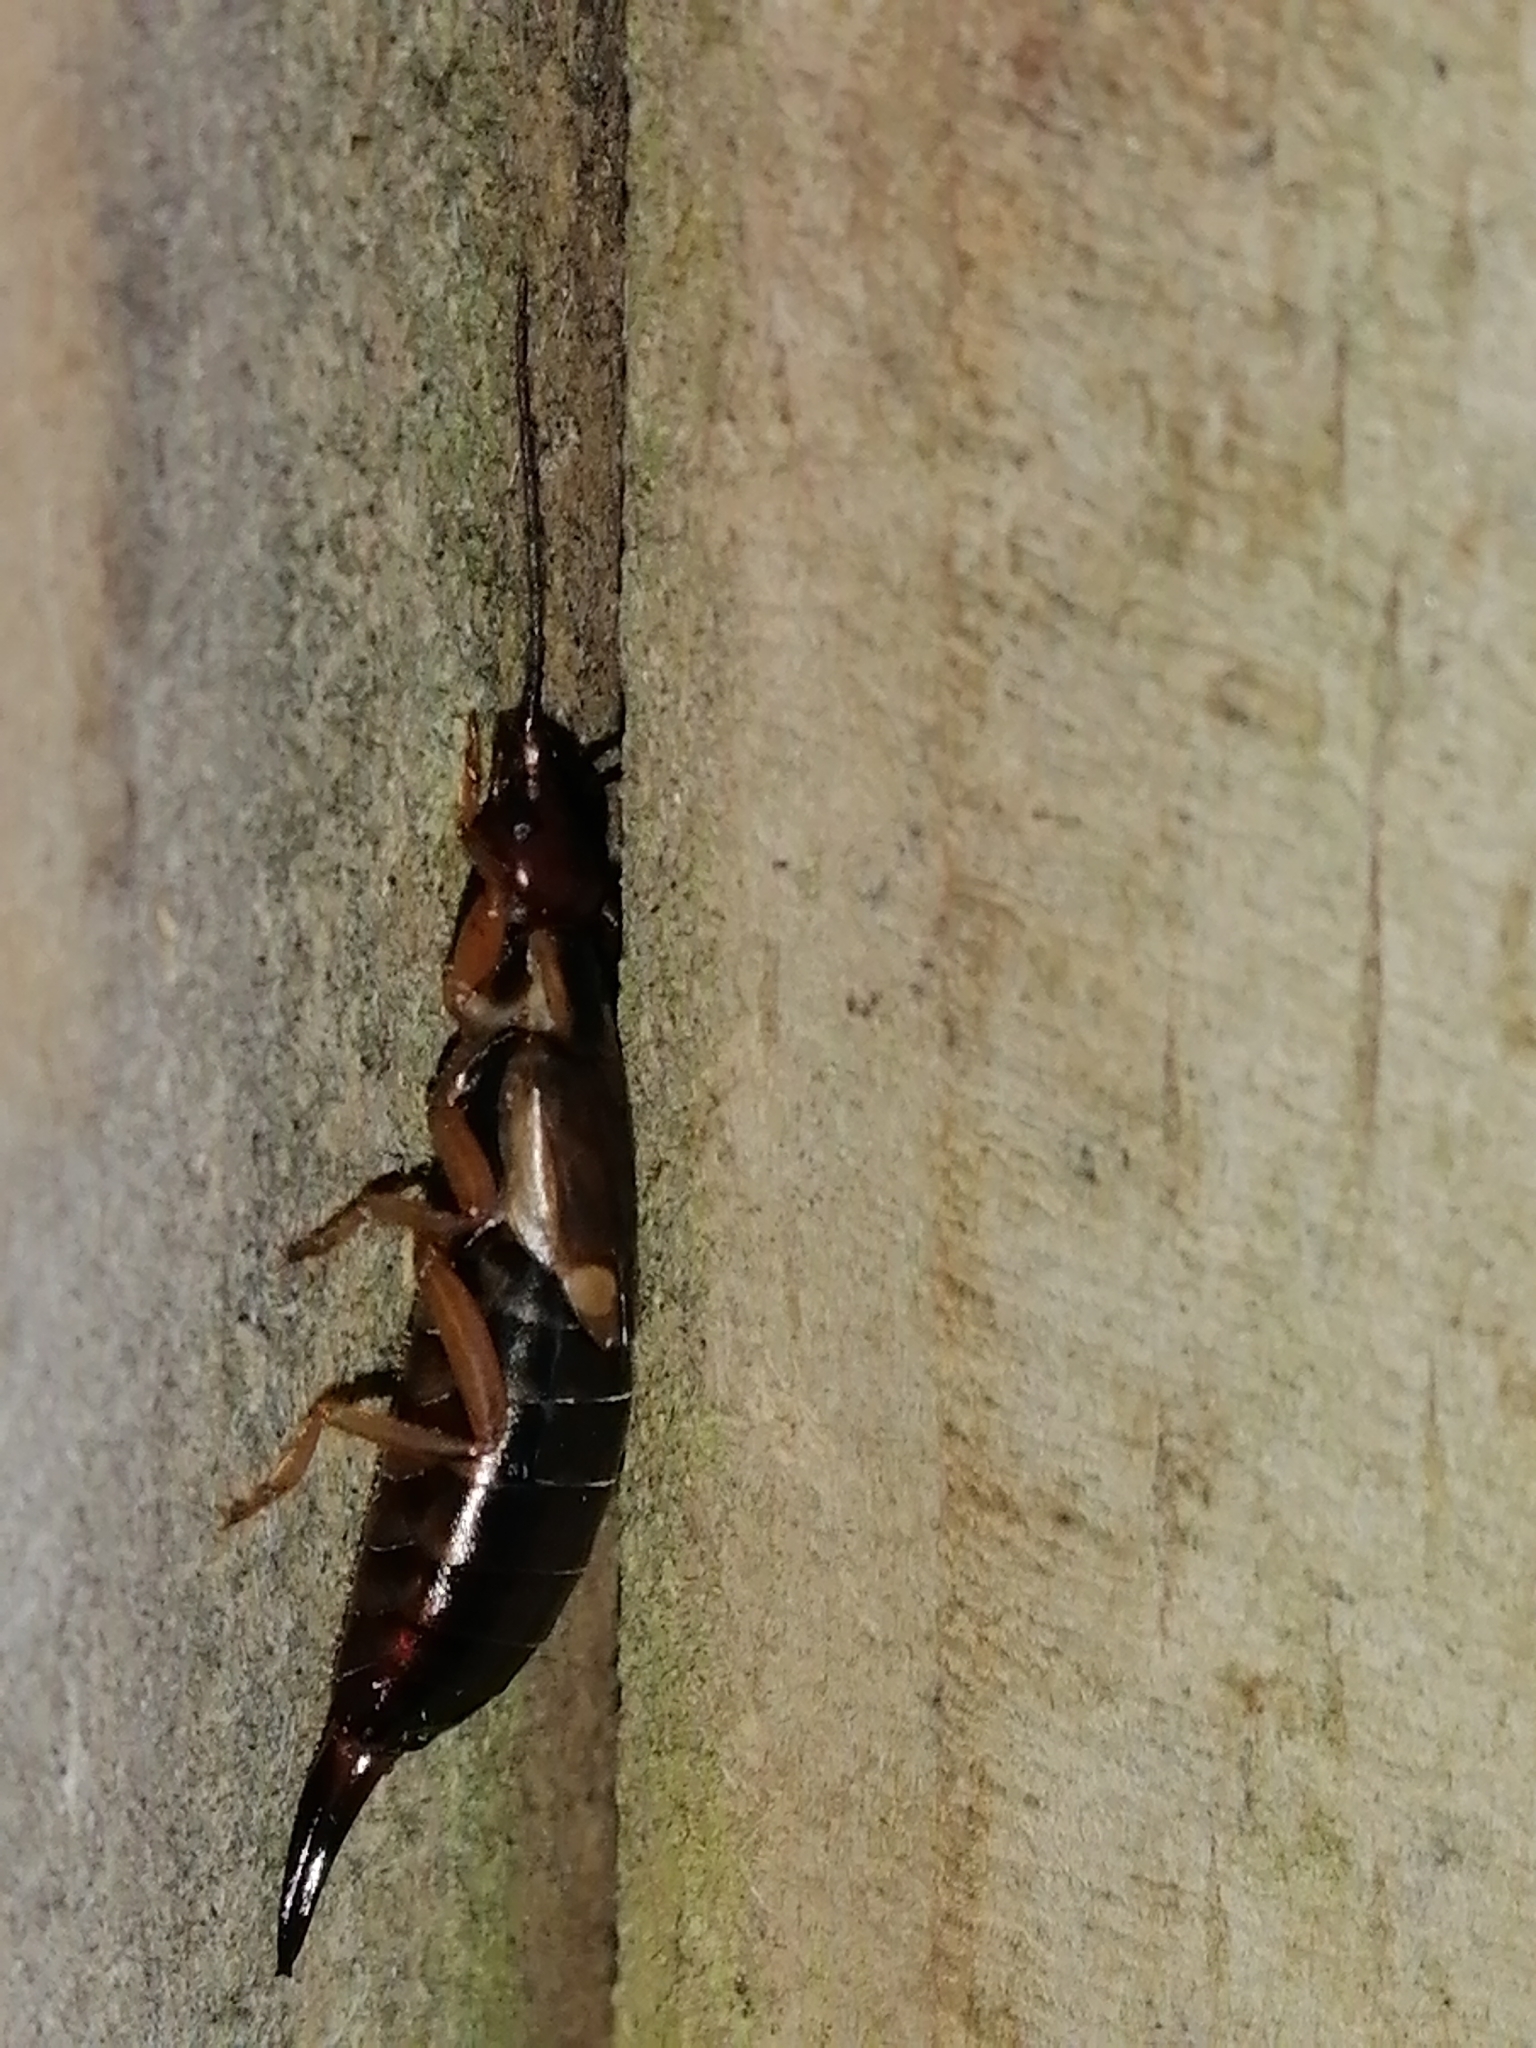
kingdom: Animalia
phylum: Arthropoda
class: Insecta
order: Dermaptera
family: Forficulidae
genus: Forficula
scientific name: Forficula dentata
